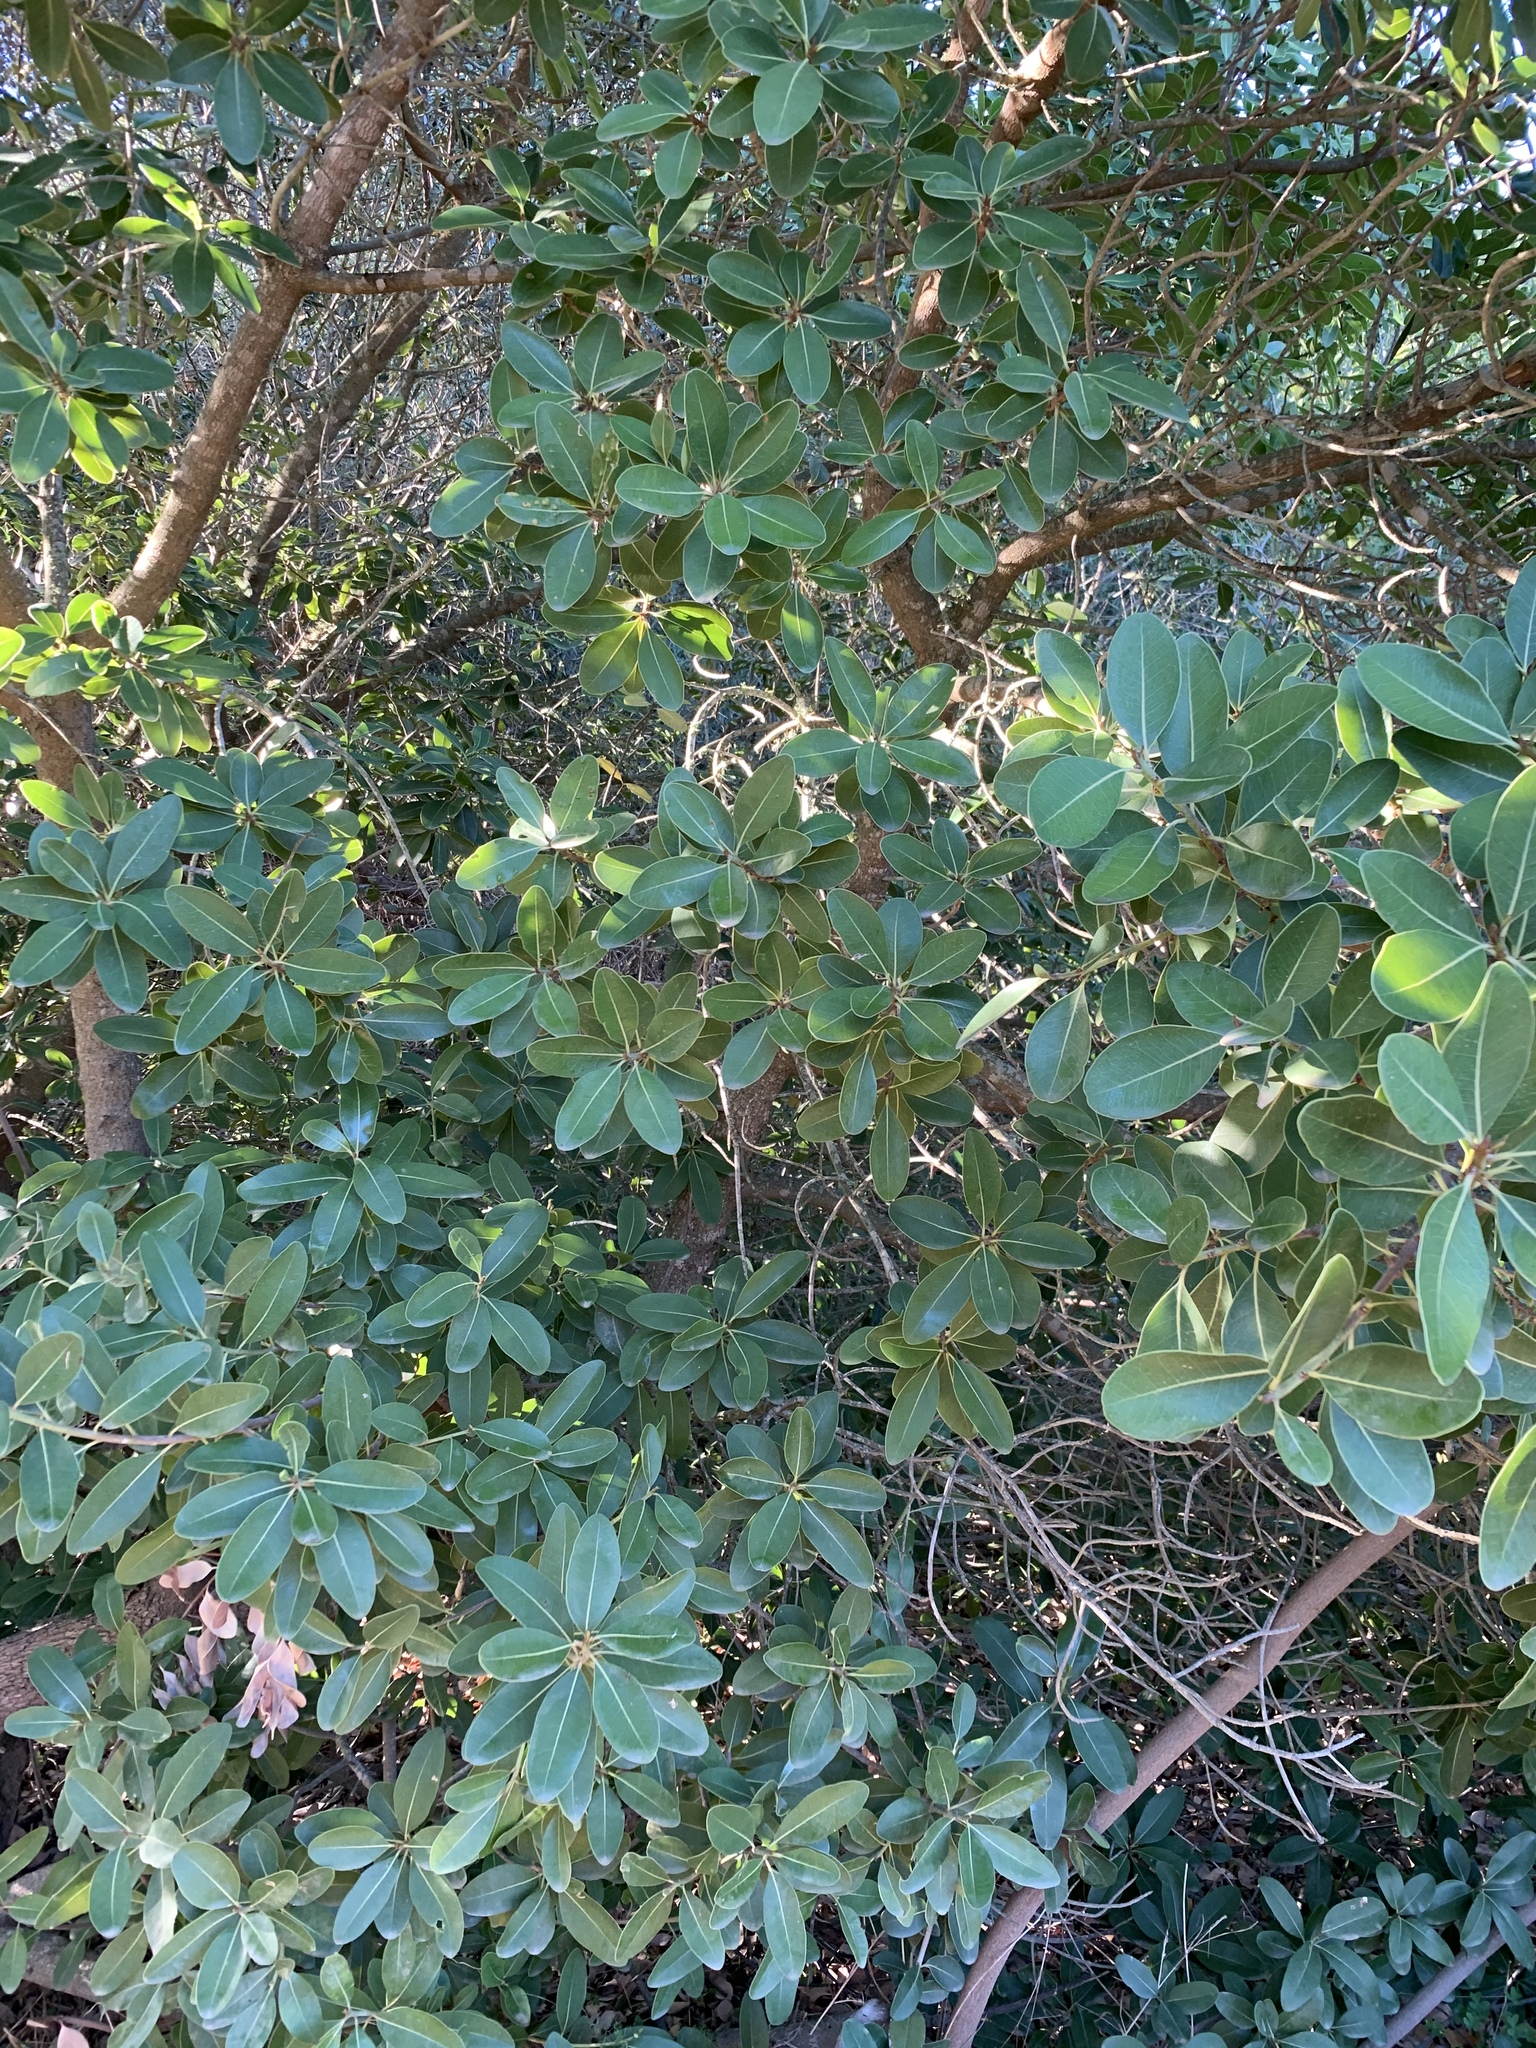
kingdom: Plantae
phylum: Tracheophyta
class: Magnoliopsida
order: Ericales
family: Sapotaceae
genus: Sideroxylon
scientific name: Sideroxylon inerme
